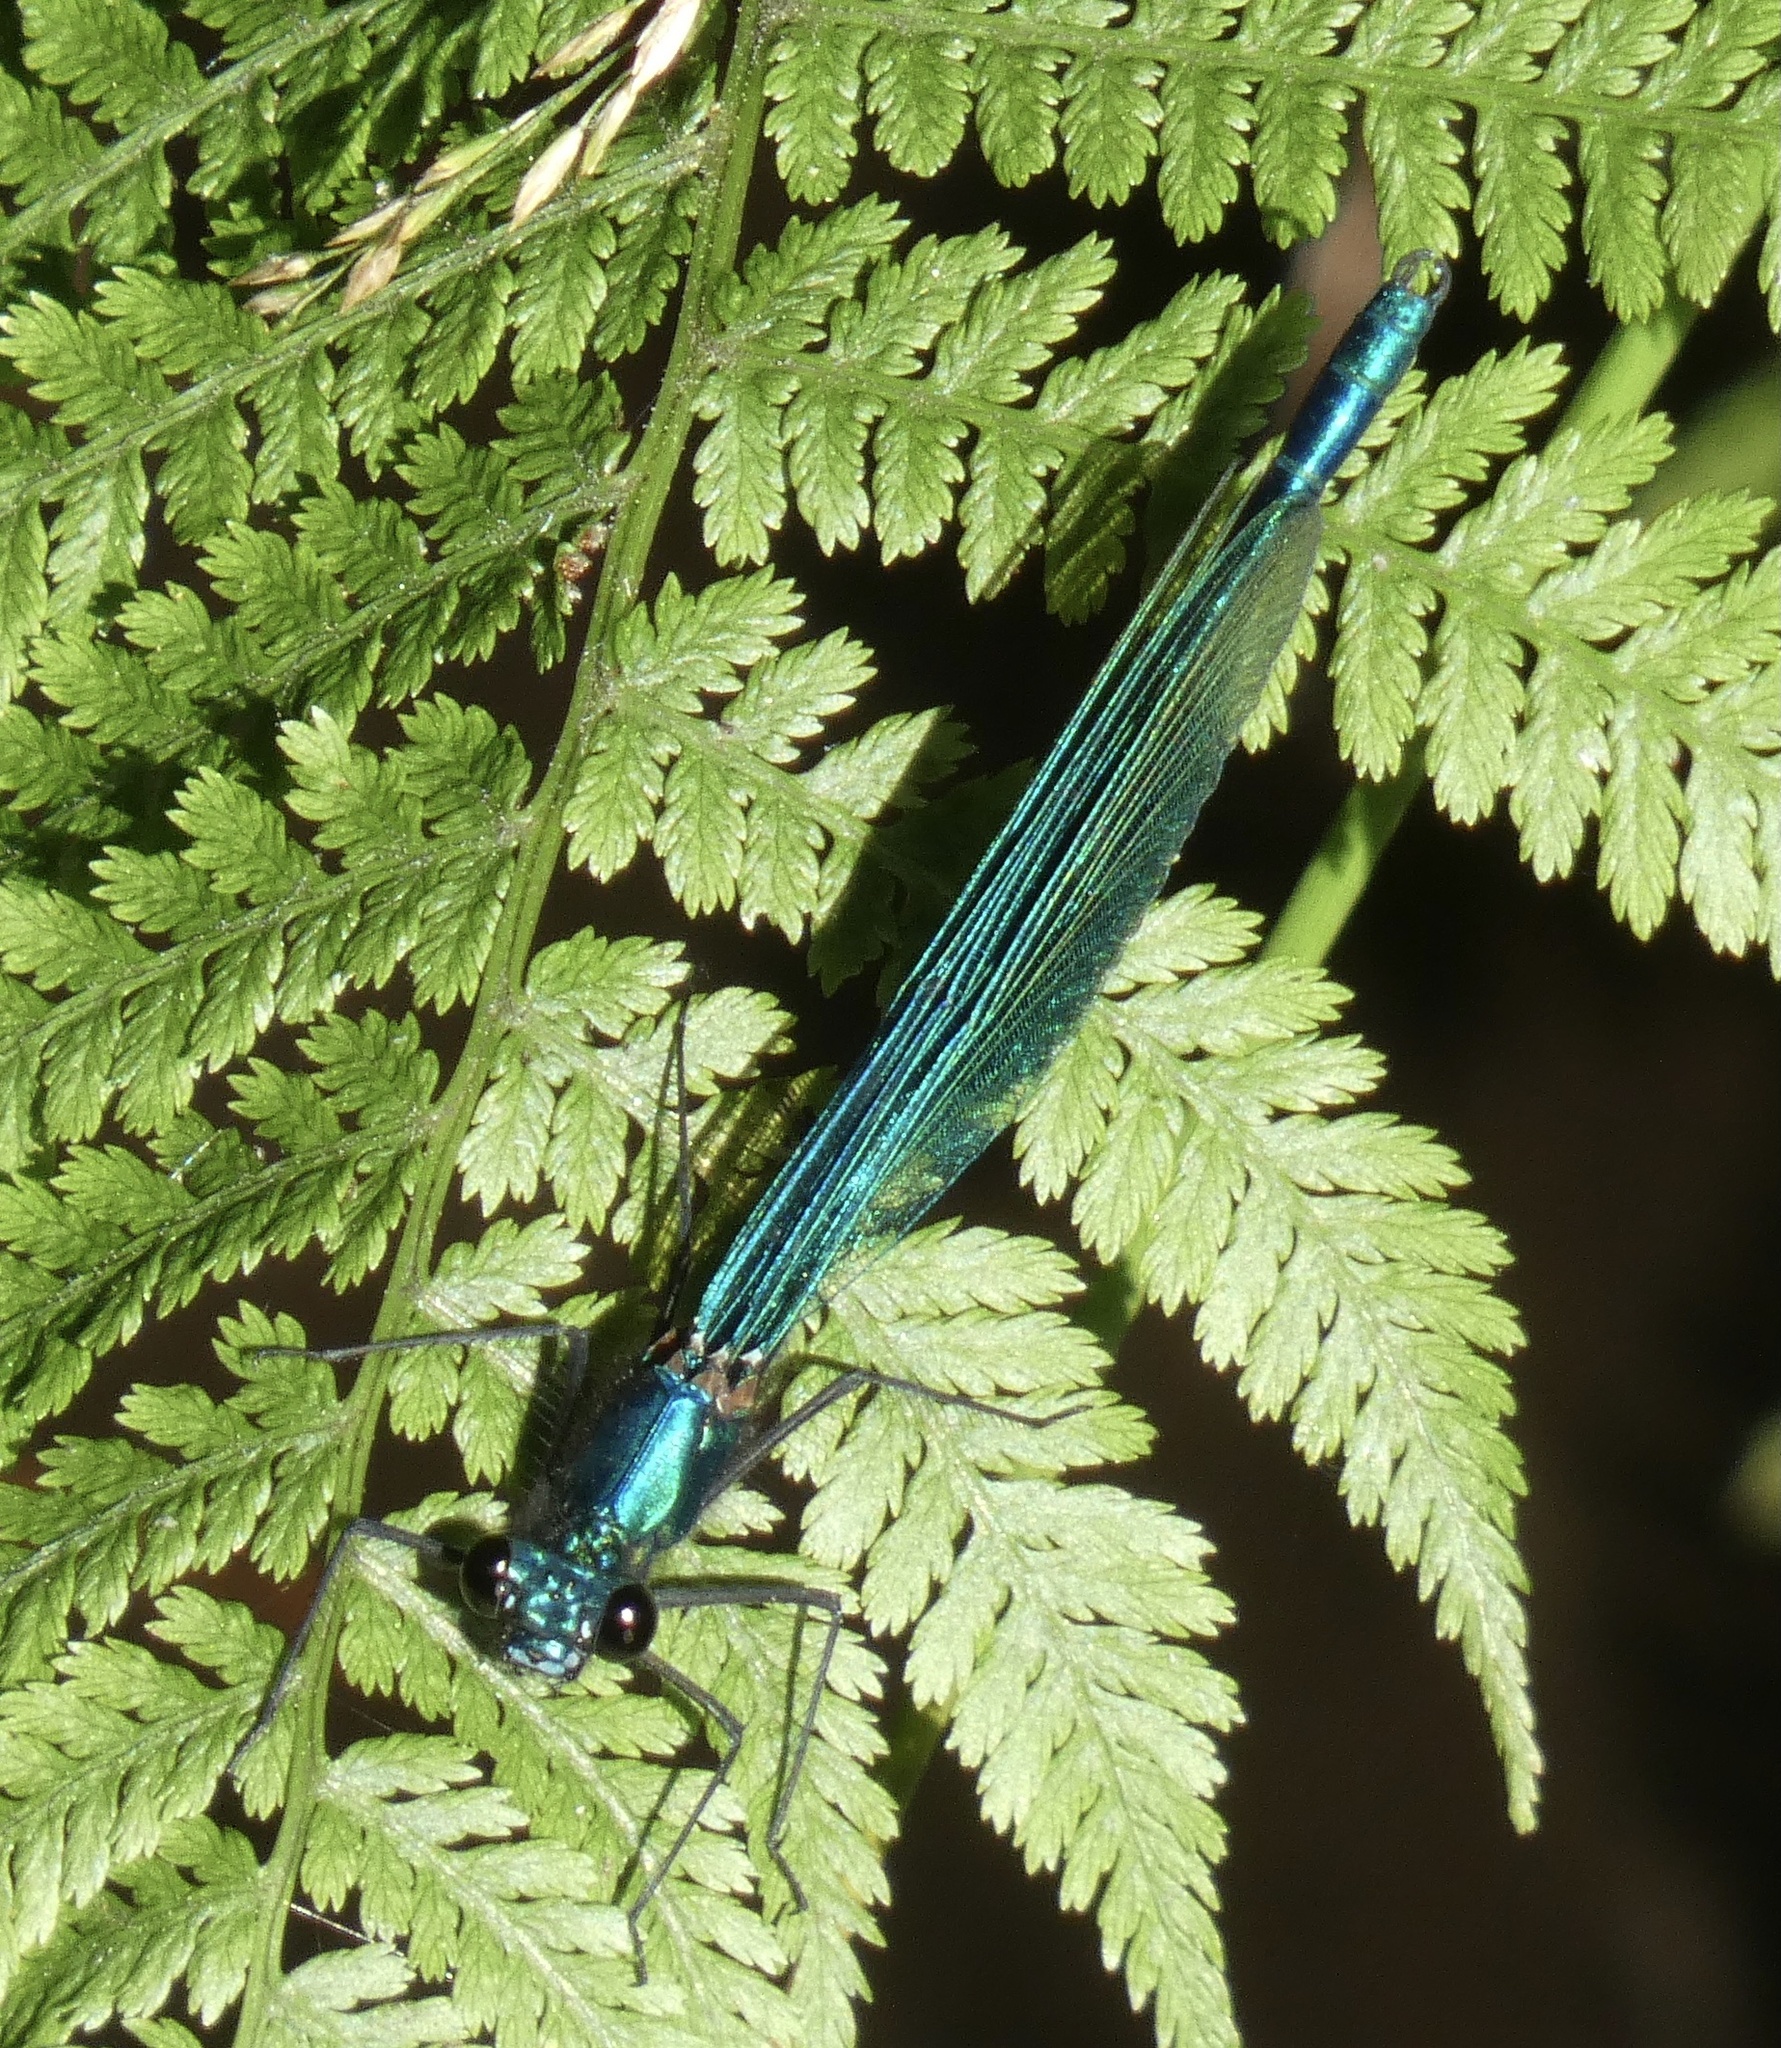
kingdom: Animalia
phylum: Arthropoda
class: Insecta
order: Odonata
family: Calopterygidae
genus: Calopteryx
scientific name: Calopteryx splendens
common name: Banded demoiselle
